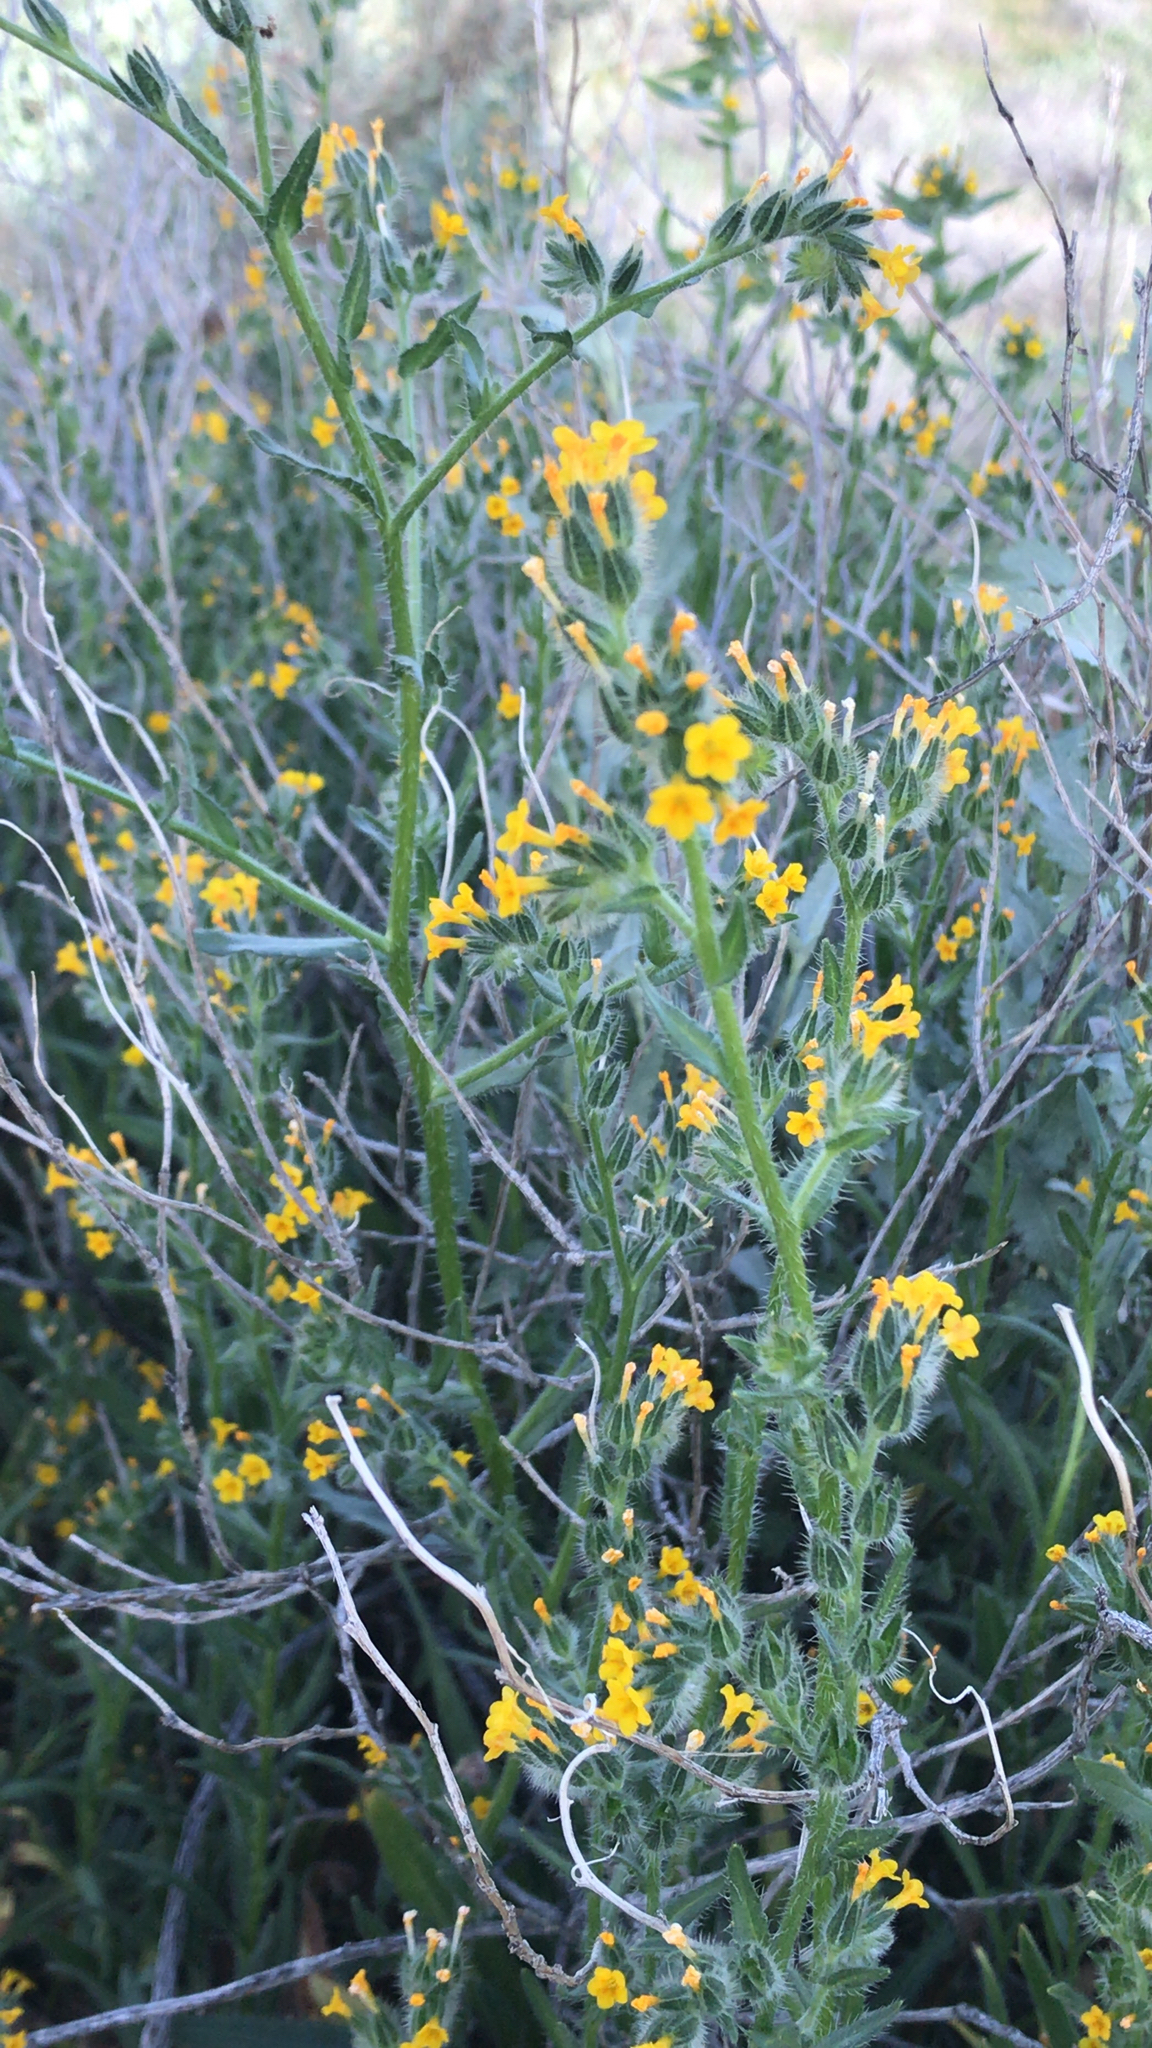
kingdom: Plantae
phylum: Tracheophyta
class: Magnoliopsida
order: Boraginales
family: Boraginaceae
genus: Amsinckia
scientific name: Amsinckia menziesii
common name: Menzies' fiddleneck
